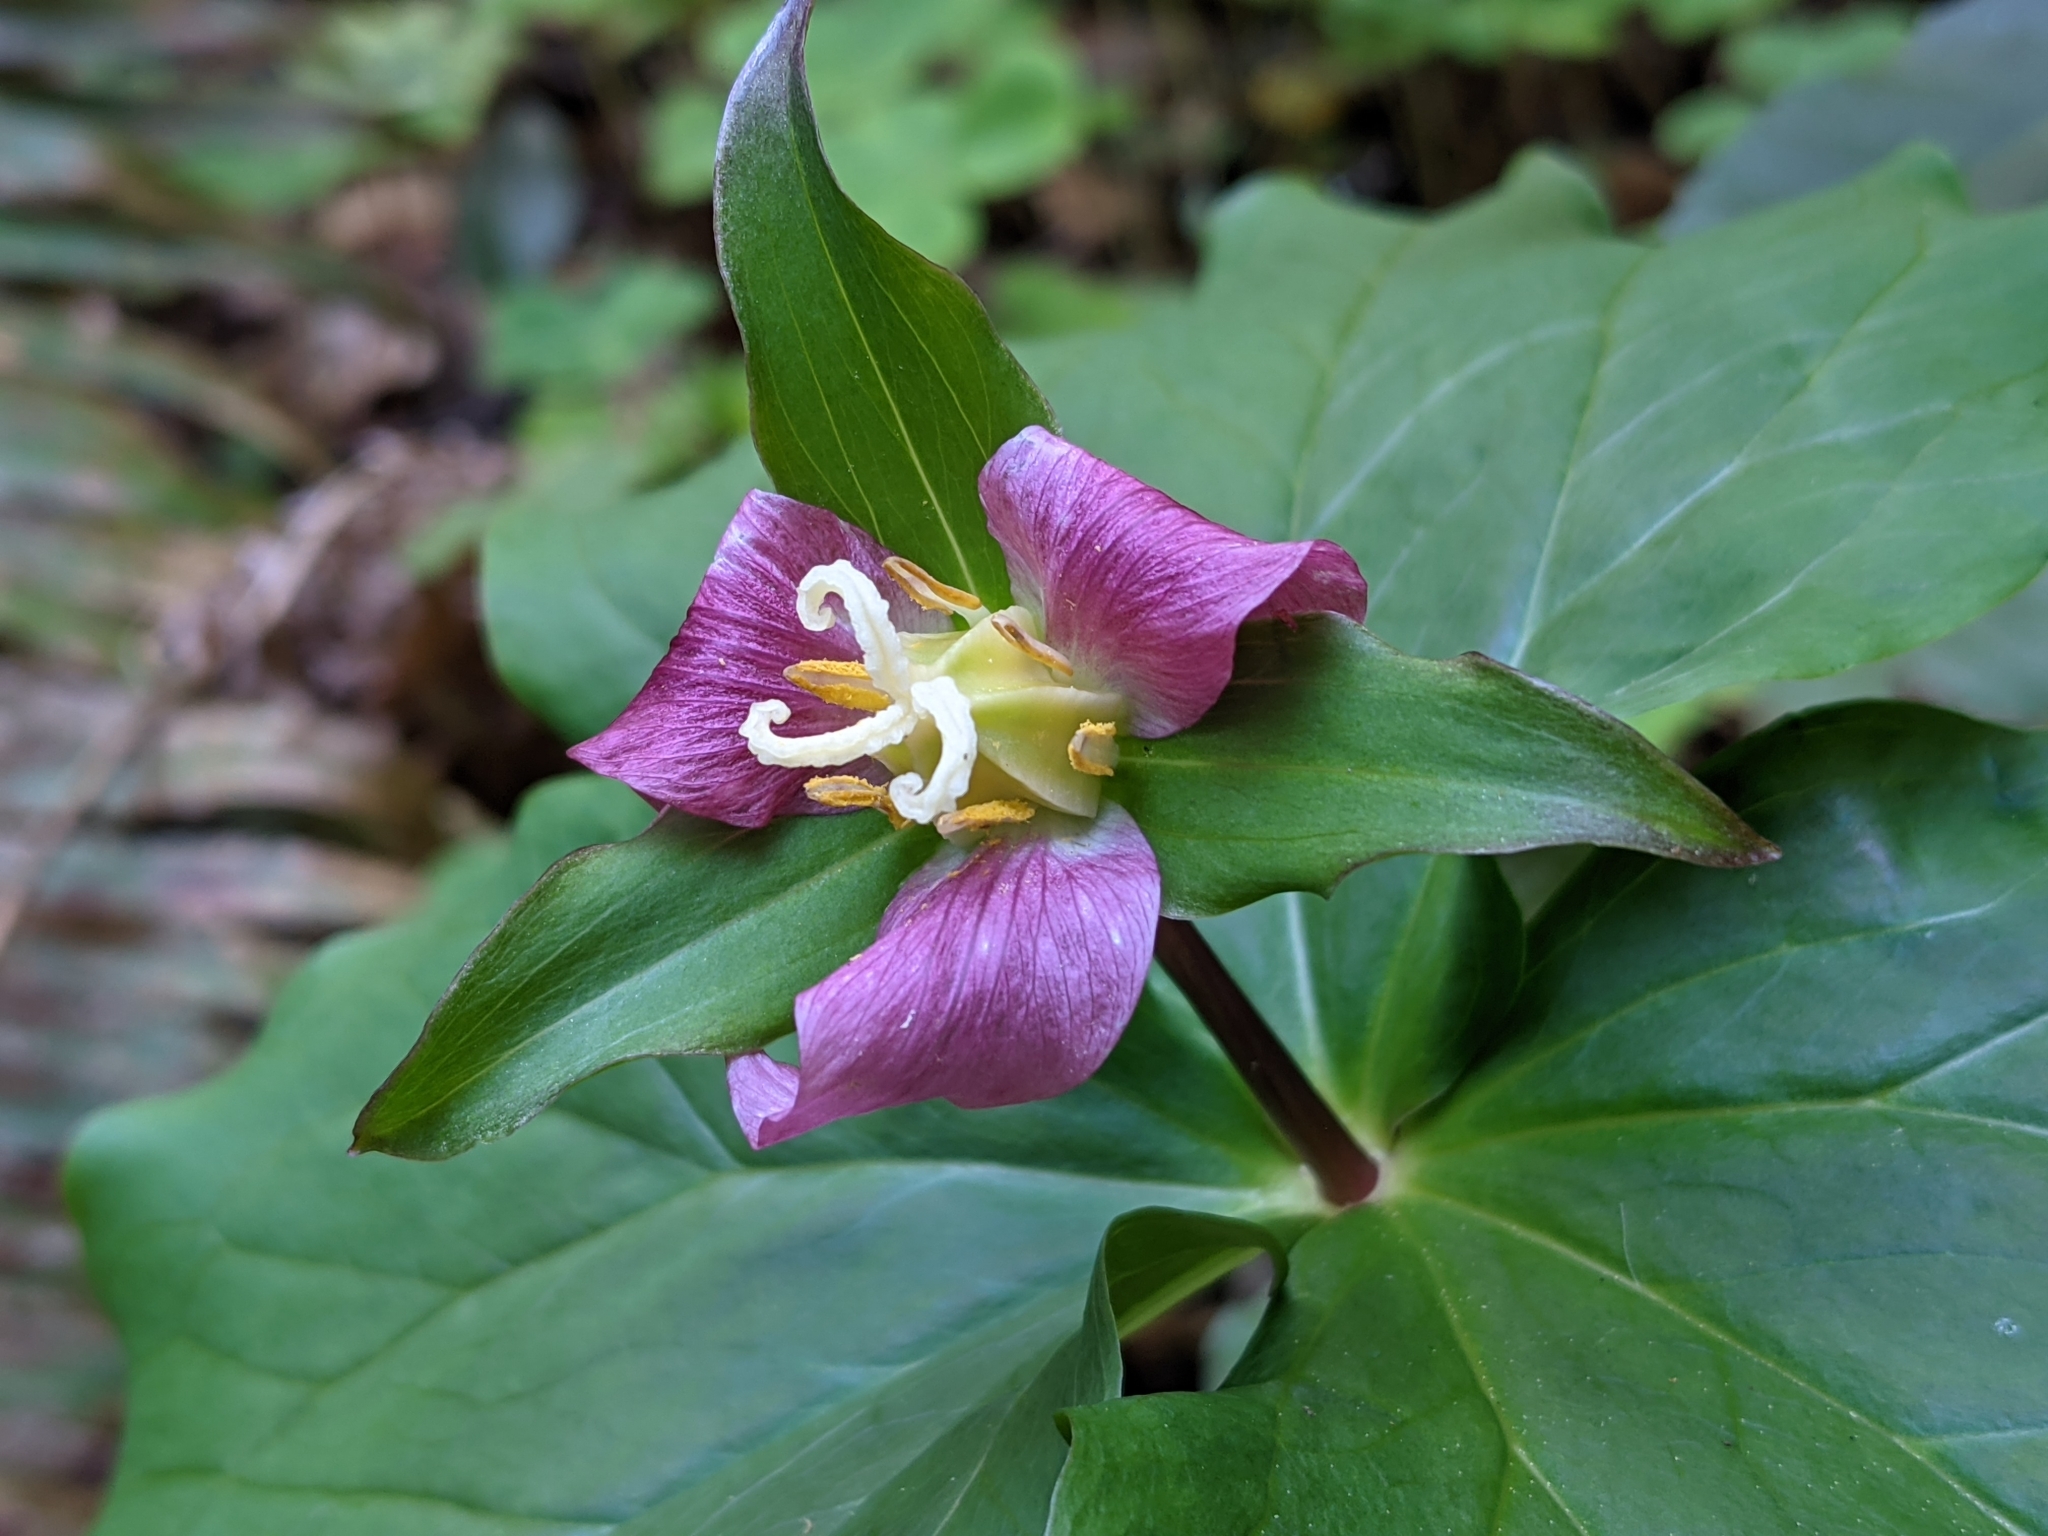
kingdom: Plantae
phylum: Tracheophyta
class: Liliopsida
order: Liliales
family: Melanthiaceae
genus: Trillium
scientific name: Trillium ovatum
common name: Pacific trillium
